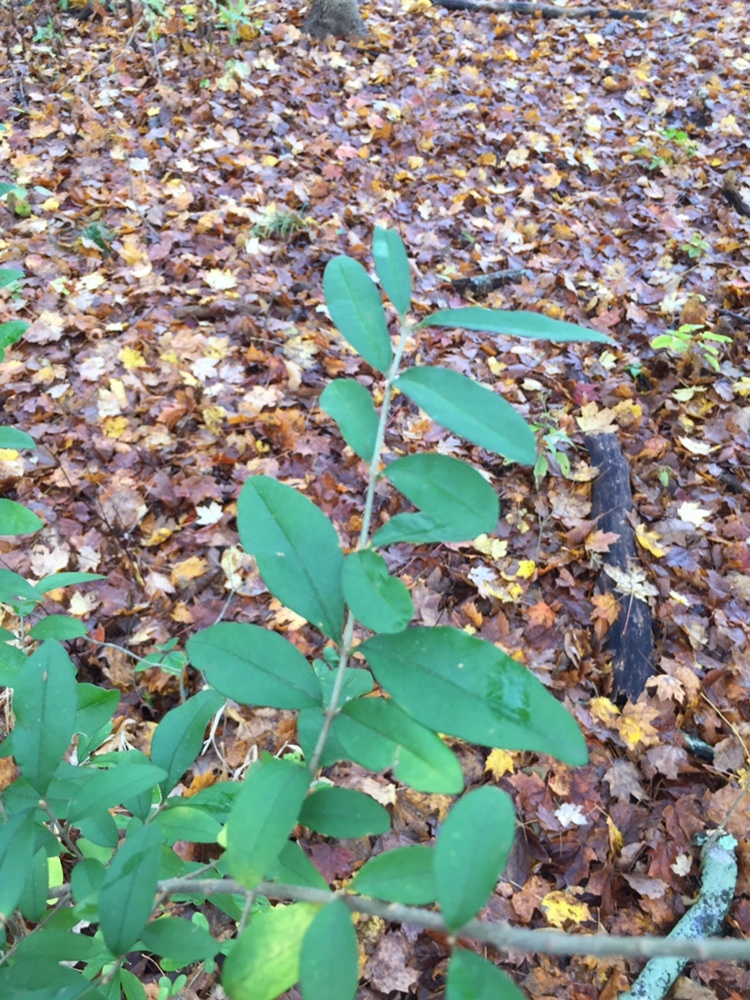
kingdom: Plantae
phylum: Tracheophyta
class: Magnoliopsida
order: Lamiales
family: Oleaceae
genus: Ligustrum
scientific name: Ligustrum obtusifolium
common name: Border privet
